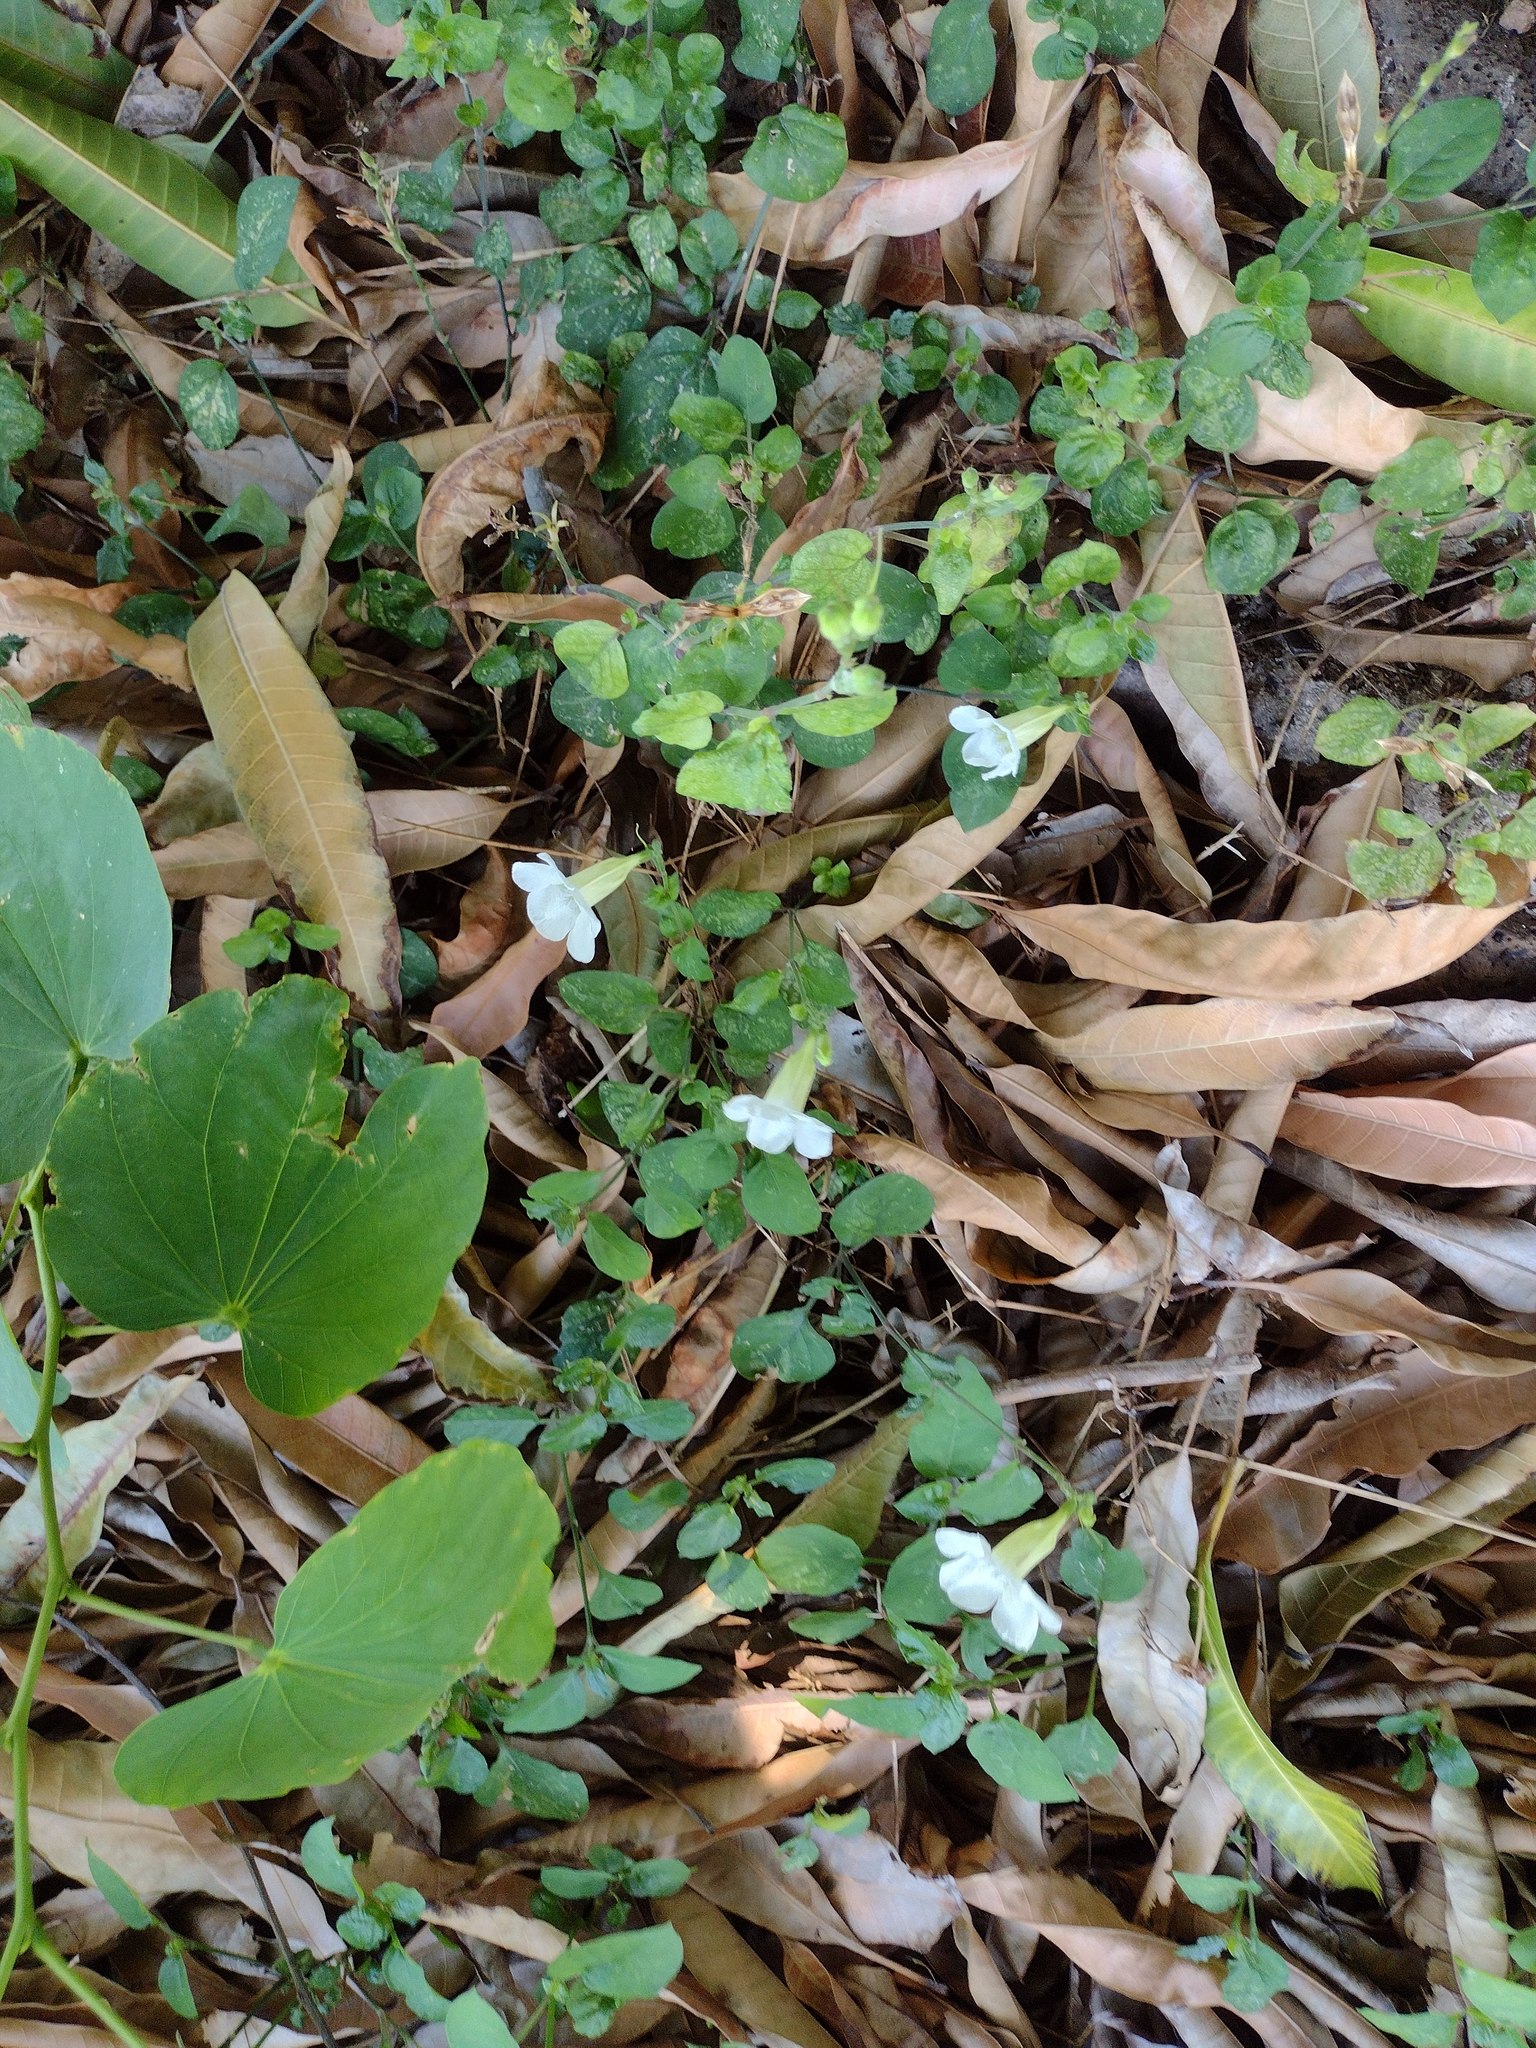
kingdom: Plantae
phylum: Tracheophyta
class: Magnoliopsida
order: Lamiales
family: Acanthaceae
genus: Asystasia
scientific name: Asystasia gangetica
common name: Chinese violet
